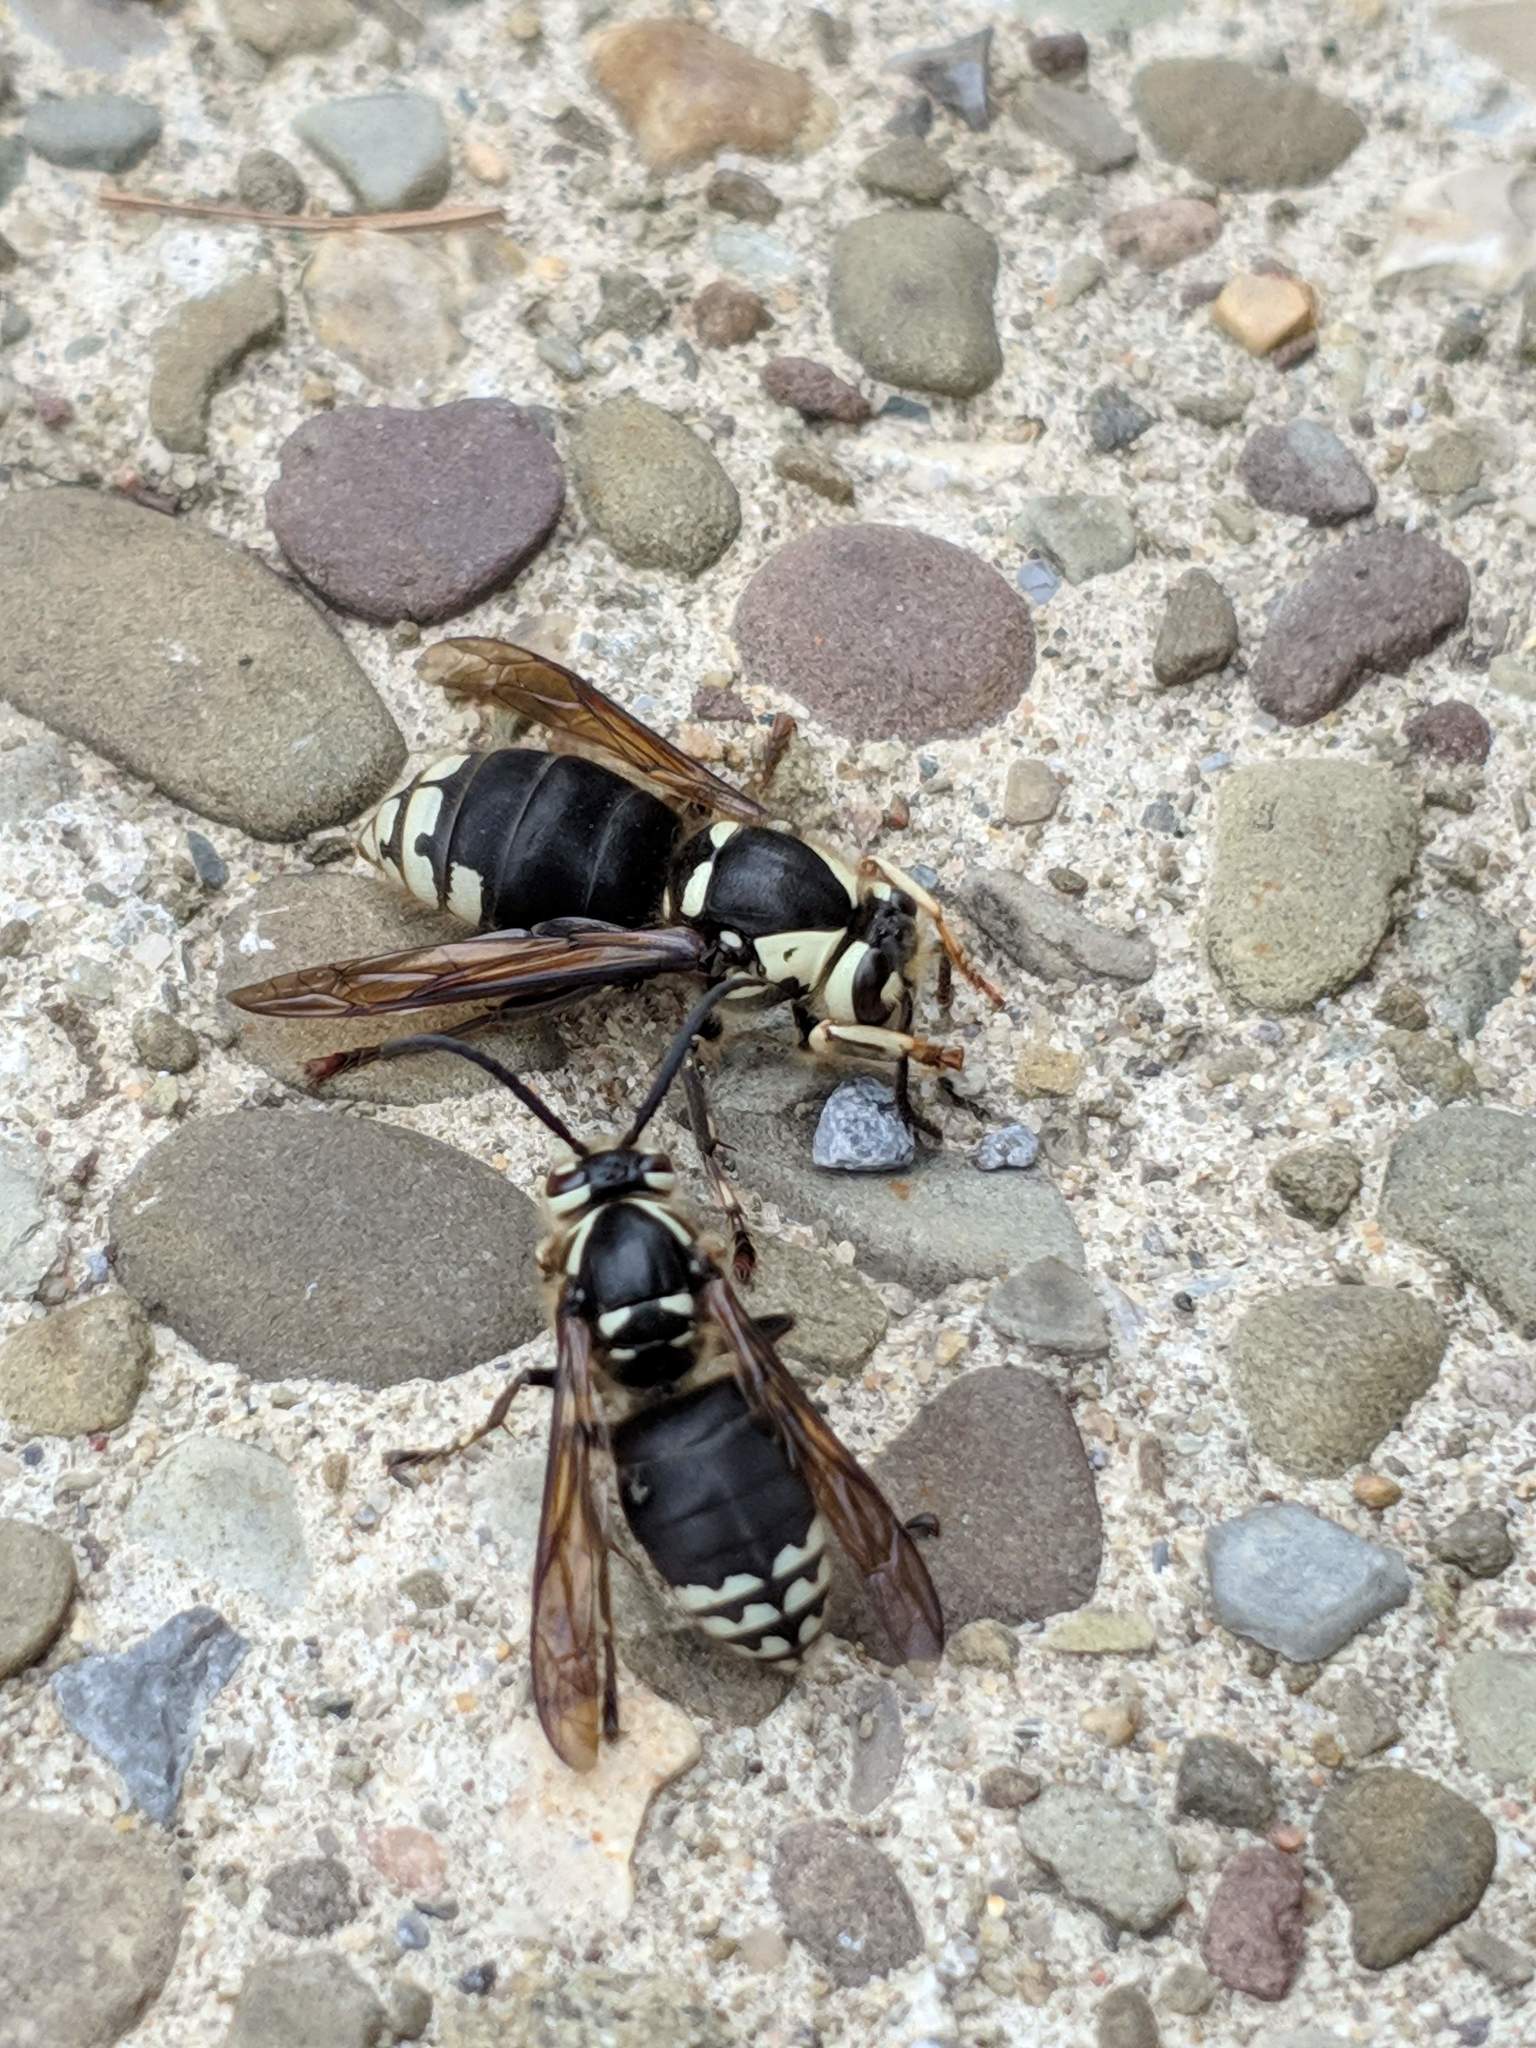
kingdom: Animalia
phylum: Arthropoda
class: Insecta
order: Hymenoptera
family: Vespidae
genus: Dolichovespula
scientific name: Dolichovespula maculata
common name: Bald-faced hornet
